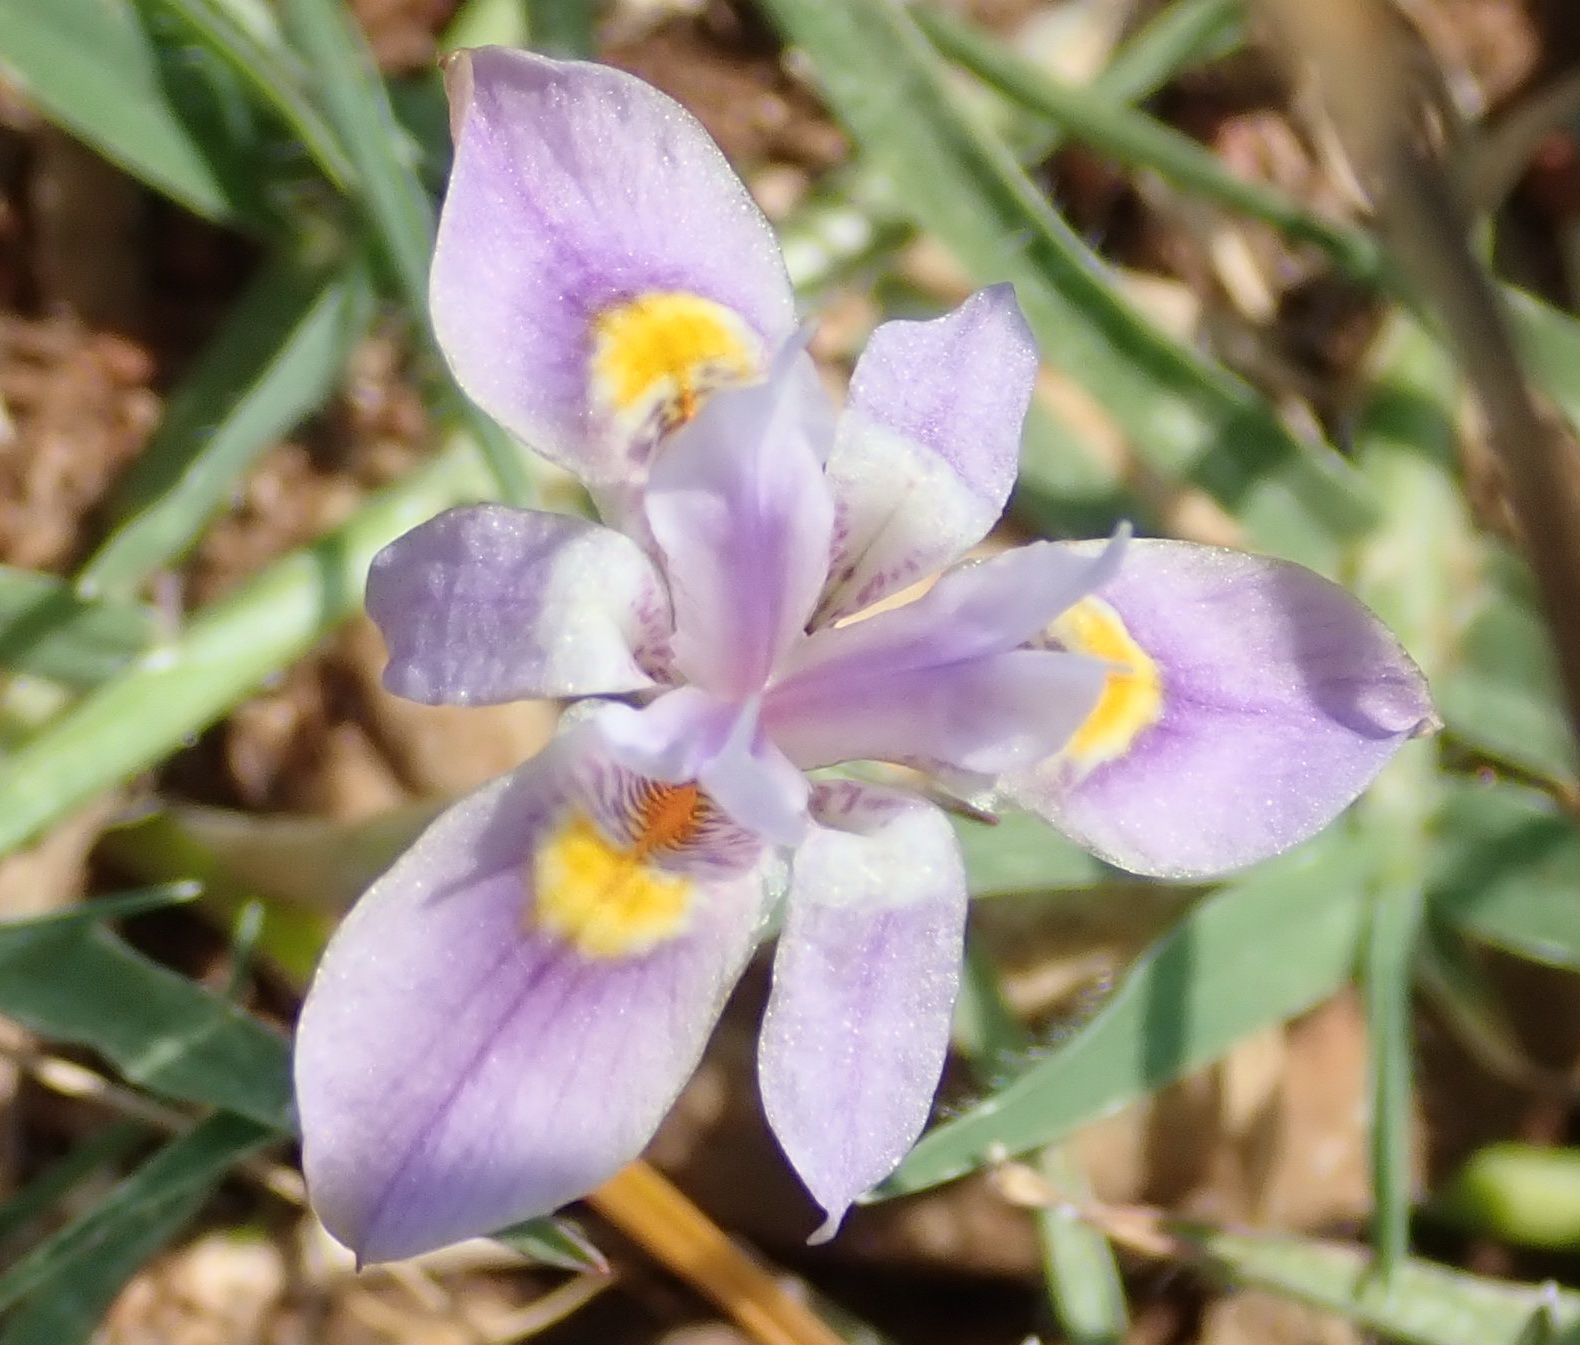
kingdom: Plantae
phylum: Tracheophyta
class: Liliopsida
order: Asparagales
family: Iridaceae
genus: Moraea
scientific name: Moraea setifolia
